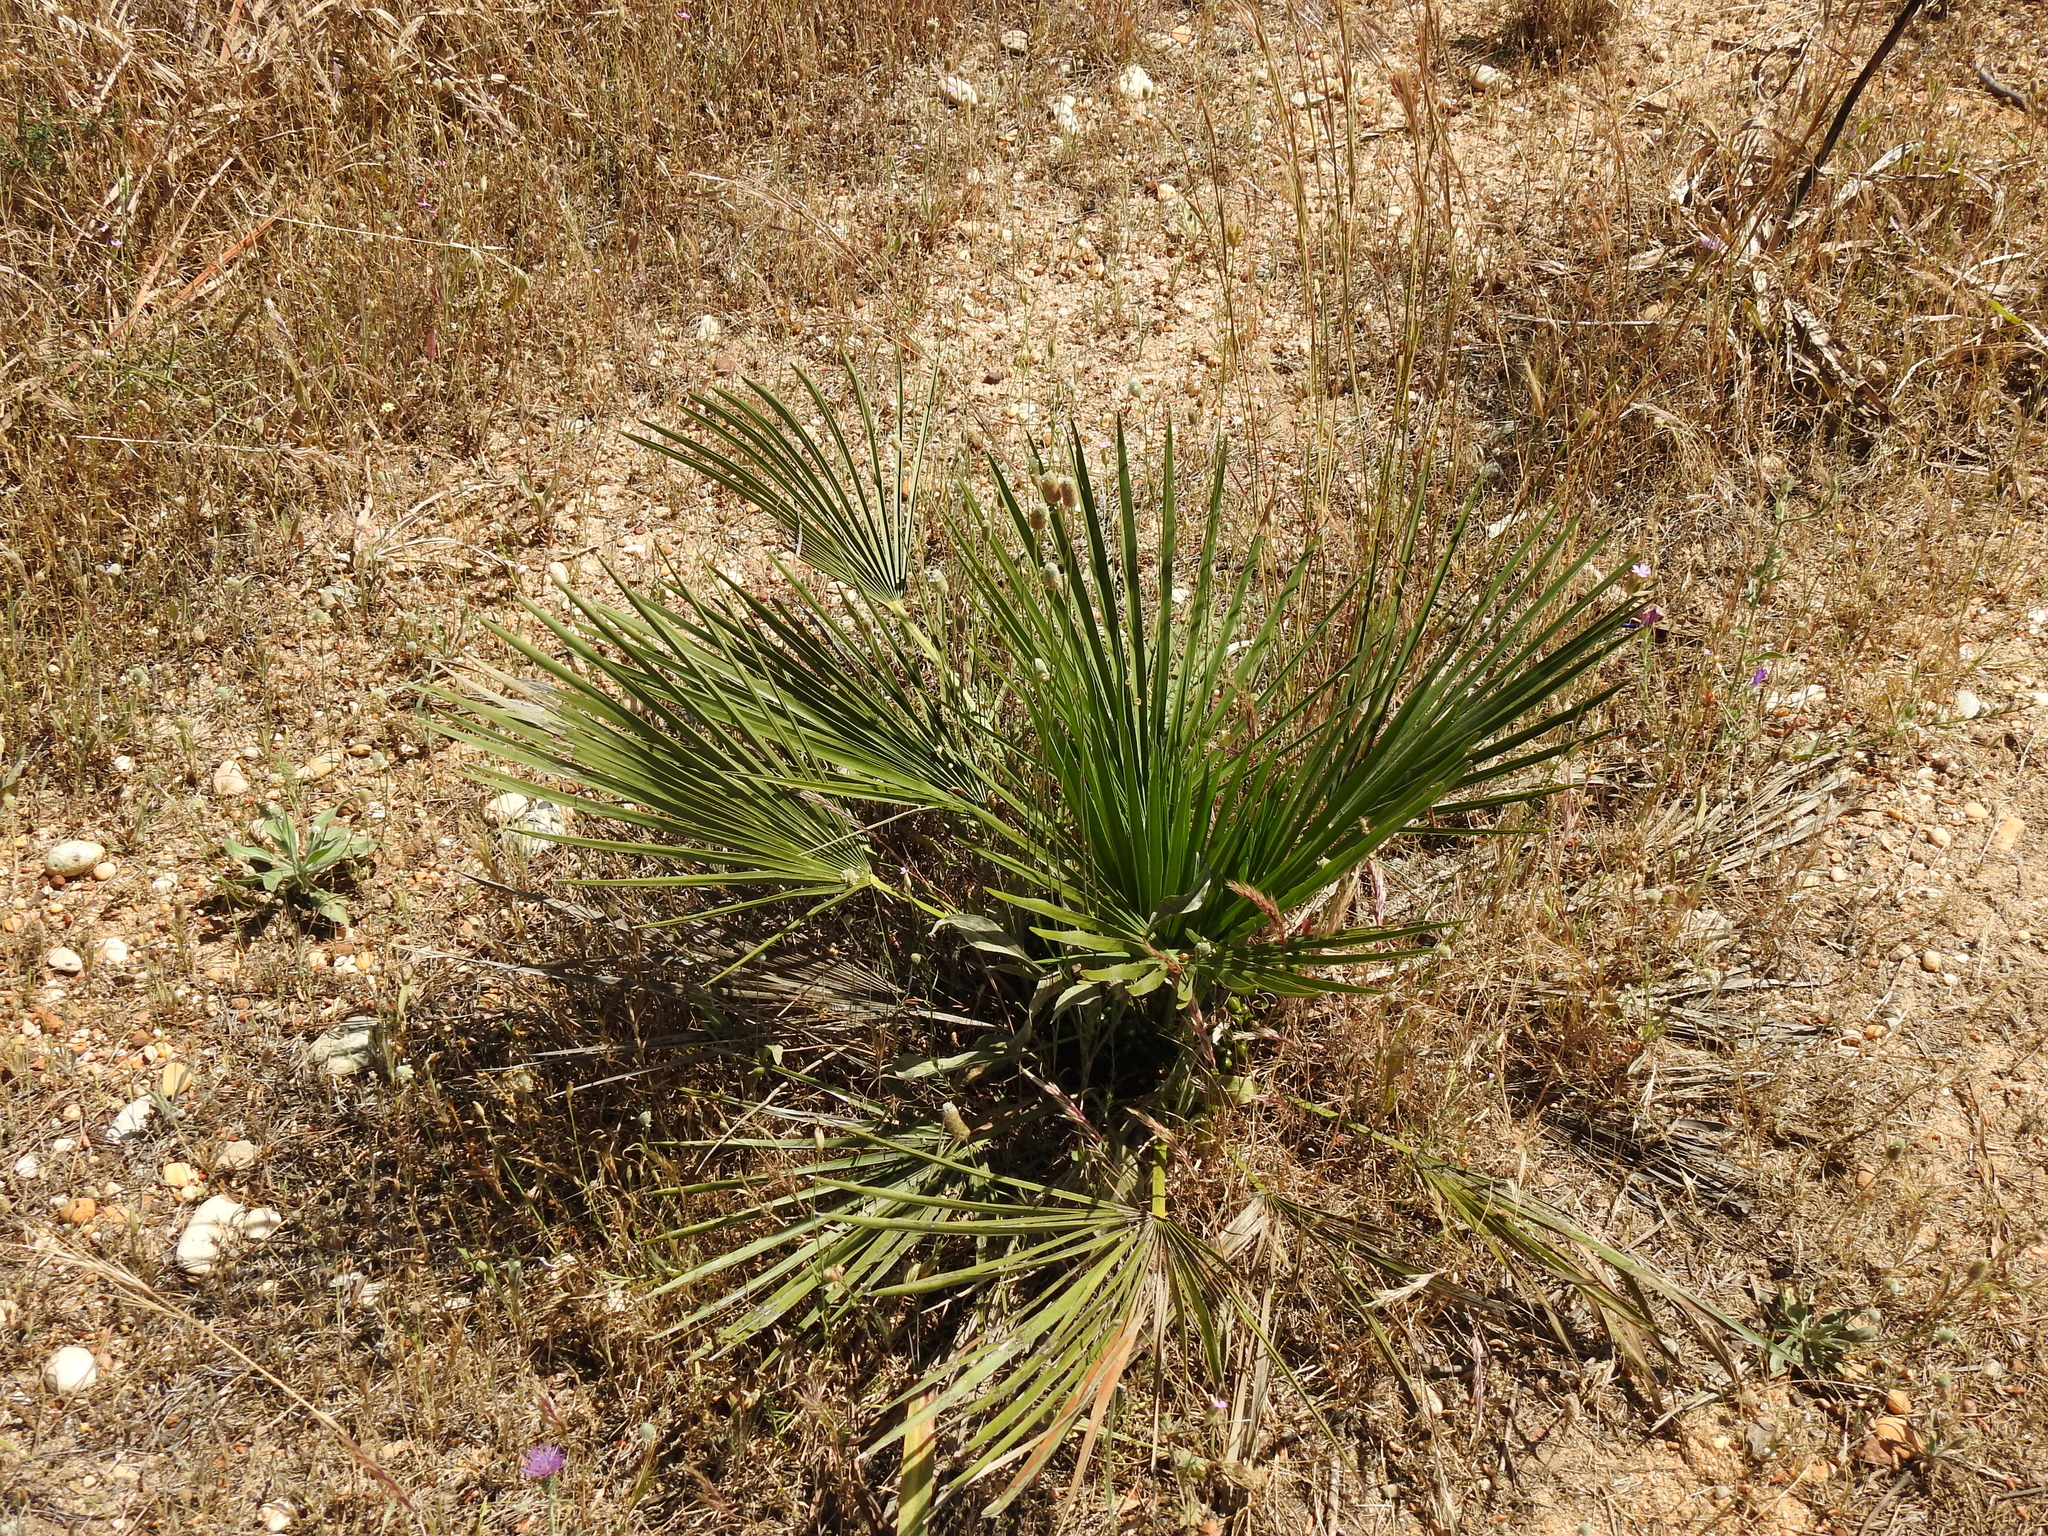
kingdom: Plantae
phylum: Tracheophyta
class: Liliopsida
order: Arecales
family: Arecaceae
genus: Chamaerops
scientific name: Chamaerops humilis
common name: Dwarf fan palm
